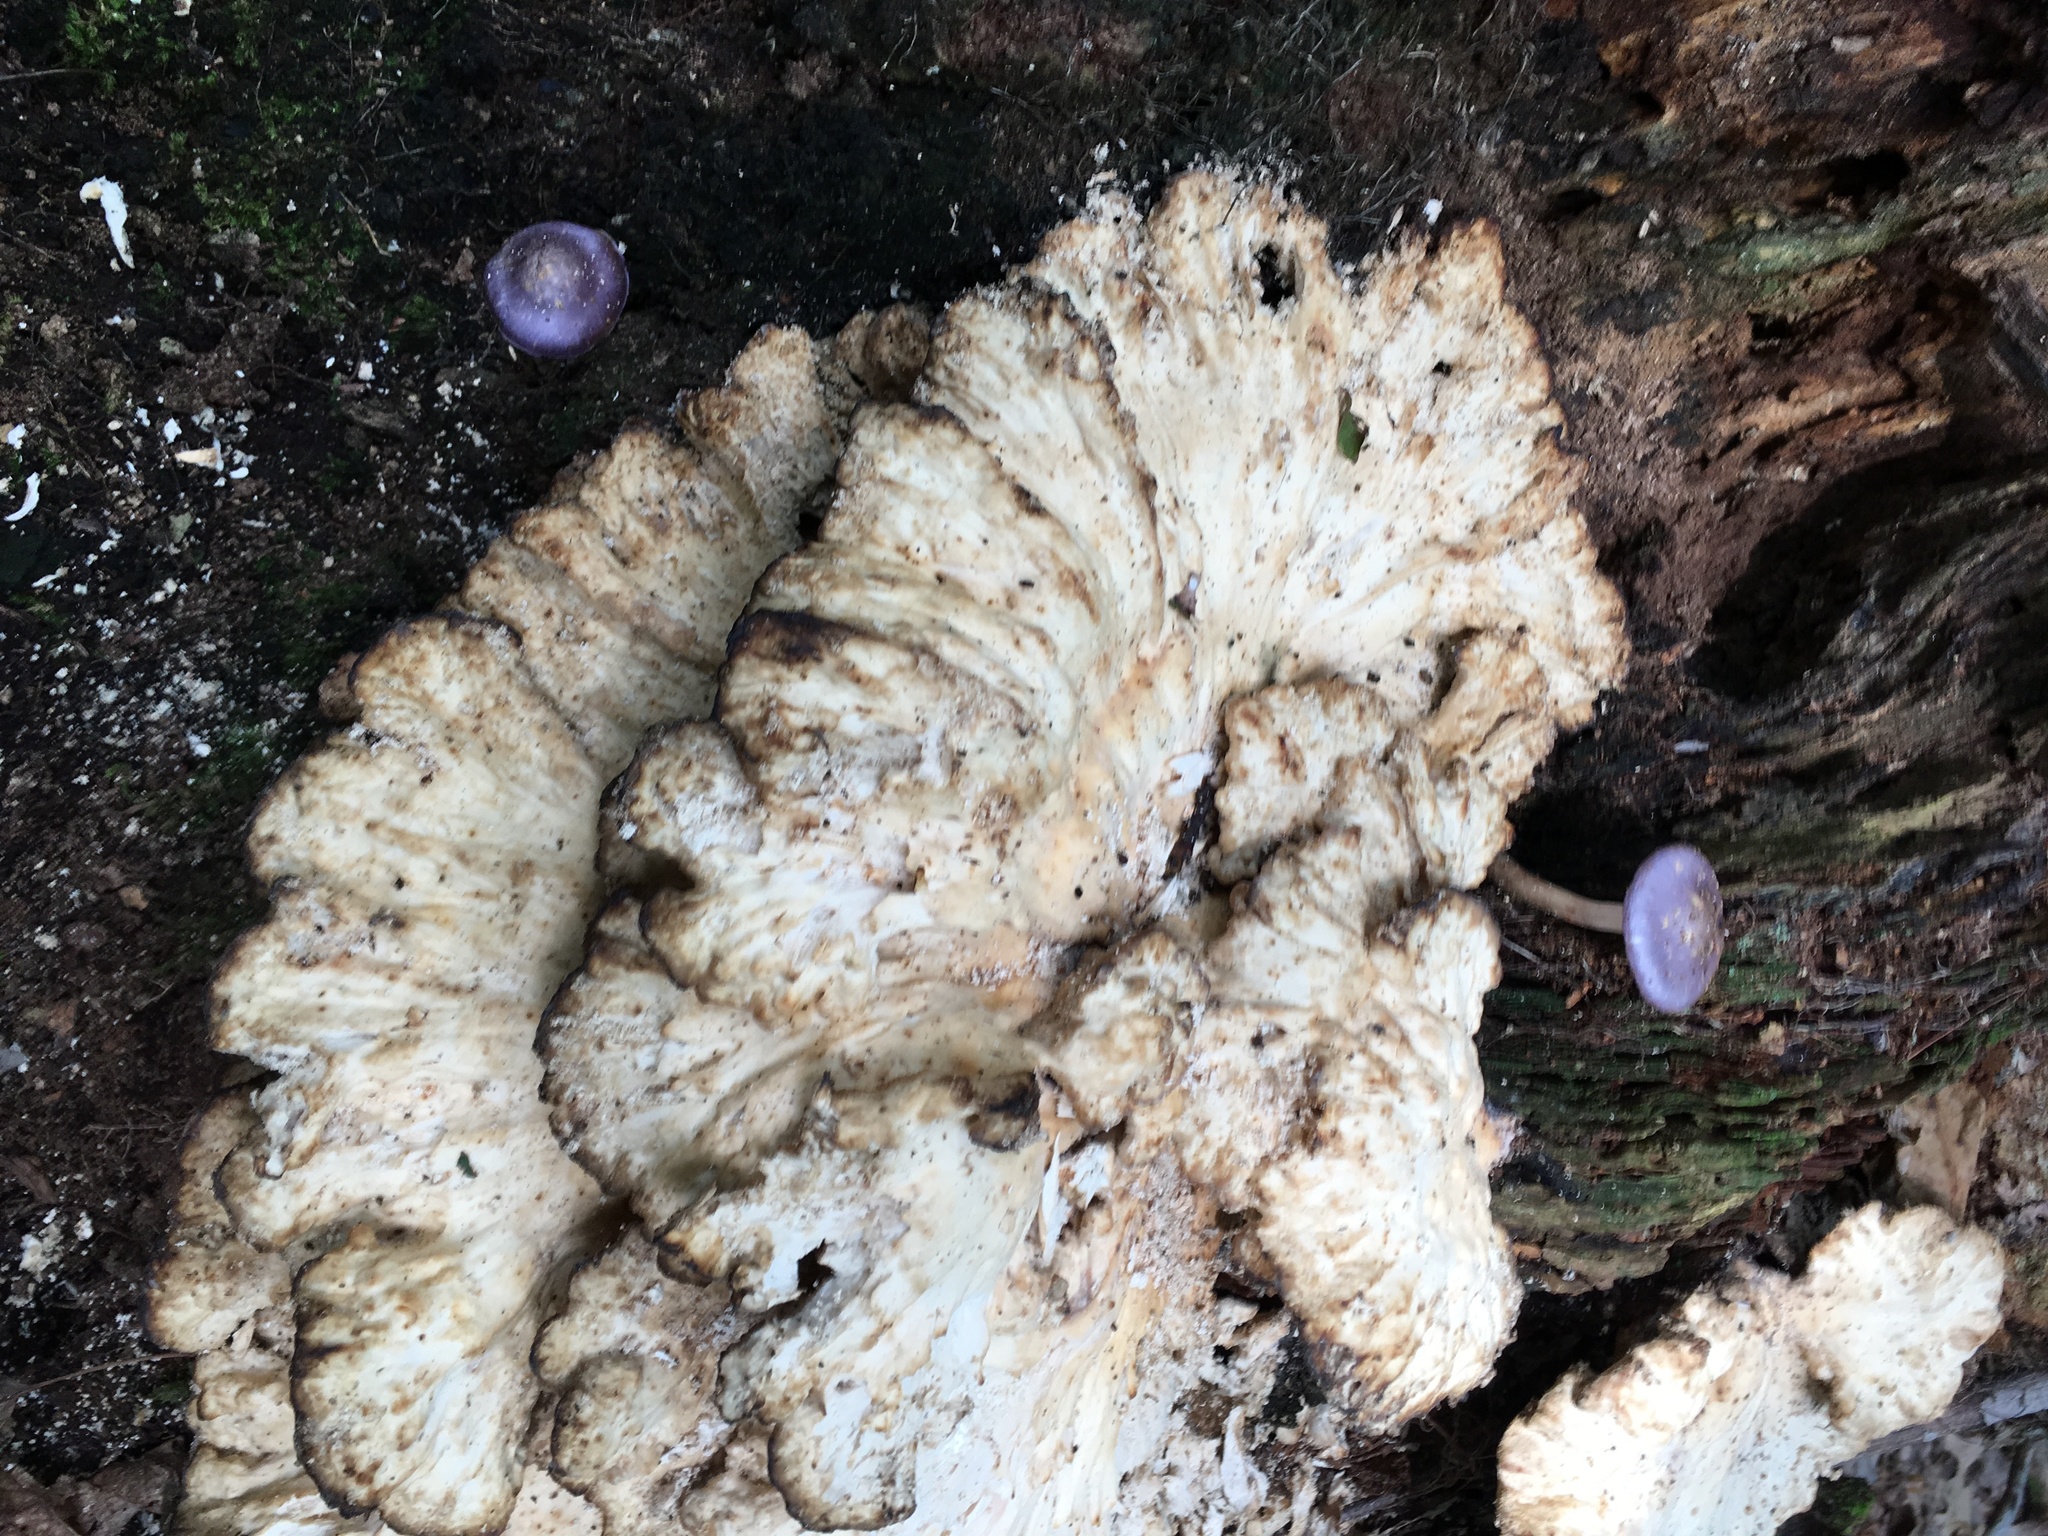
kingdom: Fungi
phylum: Basidiomycota
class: Agaricomycetes
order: Agaricales
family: Cortinariaceae
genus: Cortinarius
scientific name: Cortinarius iodes
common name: Viscid violet cort
